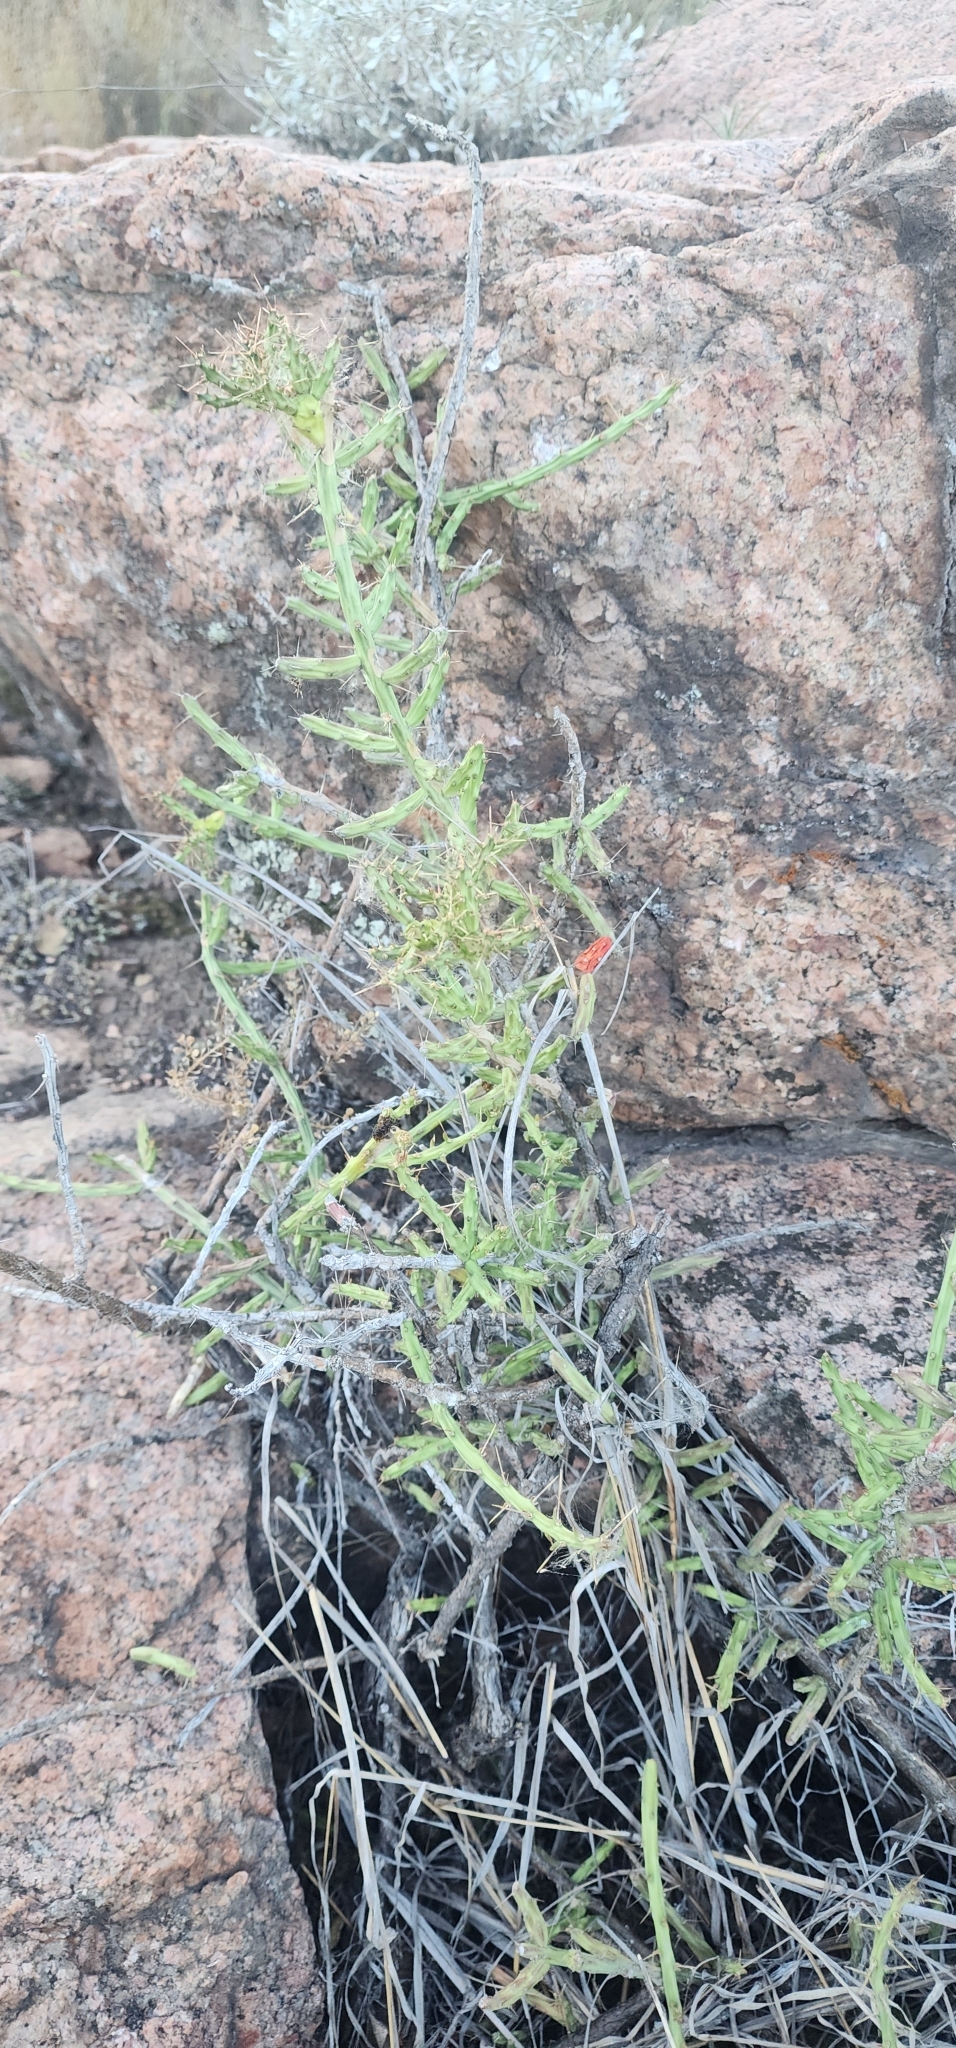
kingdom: Plantae
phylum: Tracheophyta
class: Magnoliopsida
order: Caryophyllales
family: Cactaceae
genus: Cylindropuntia
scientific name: Cylindropuntia leptocaulis
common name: Christmas cactus
